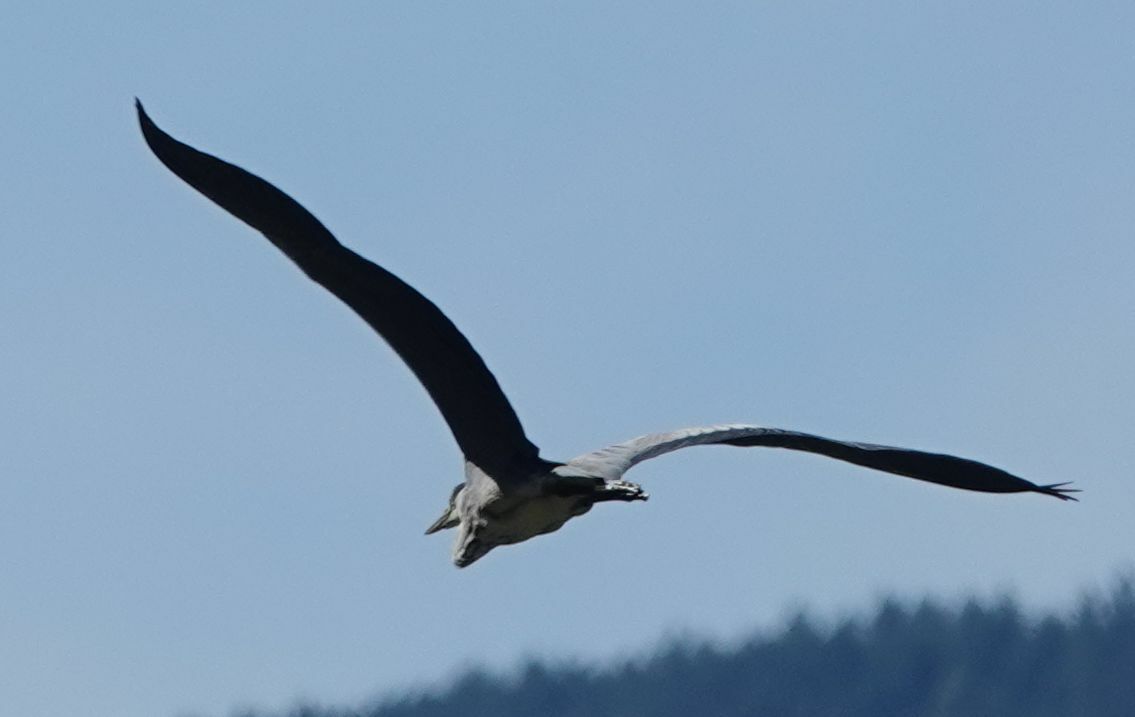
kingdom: Animalia
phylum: Chordata
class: Aves
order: Pelecaniformes
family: Ardeidae
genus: Ardea
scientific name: Ardea cinerea
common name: Grey heron
